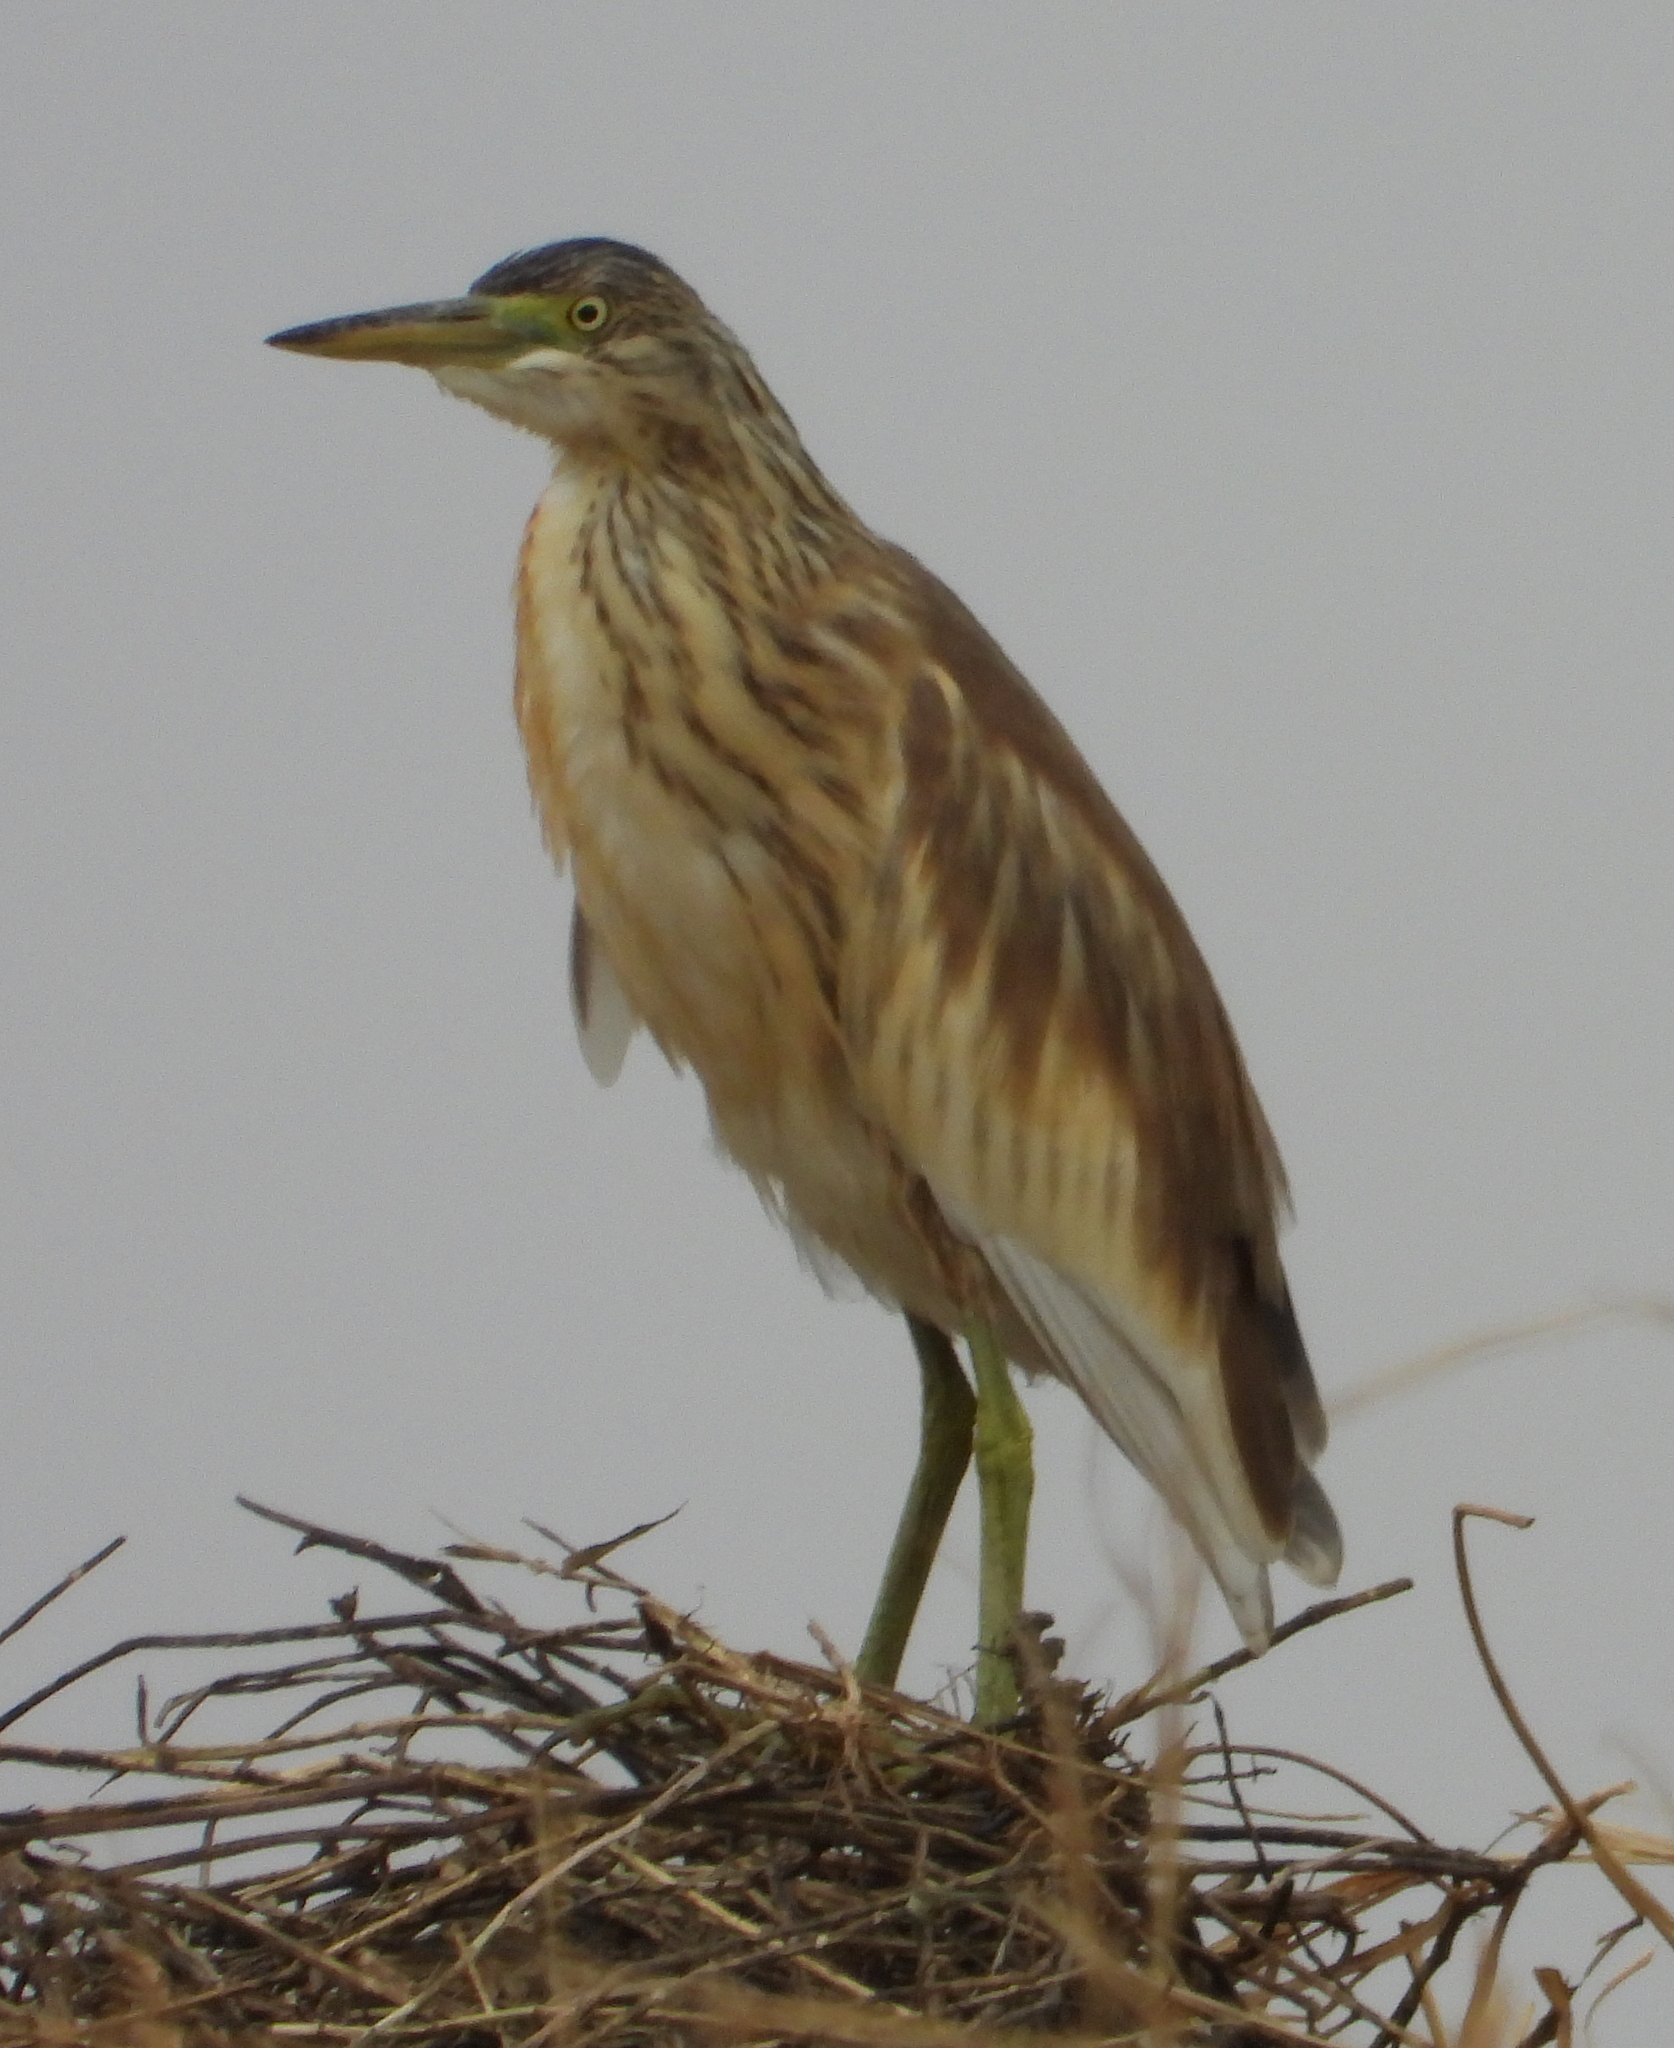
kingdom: Animalia
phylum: Chordata
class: Aves
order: Pelecaniformes
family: Ardeidae
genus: Ardeola
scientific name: Ardeola ralloides
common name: Squacco heron
